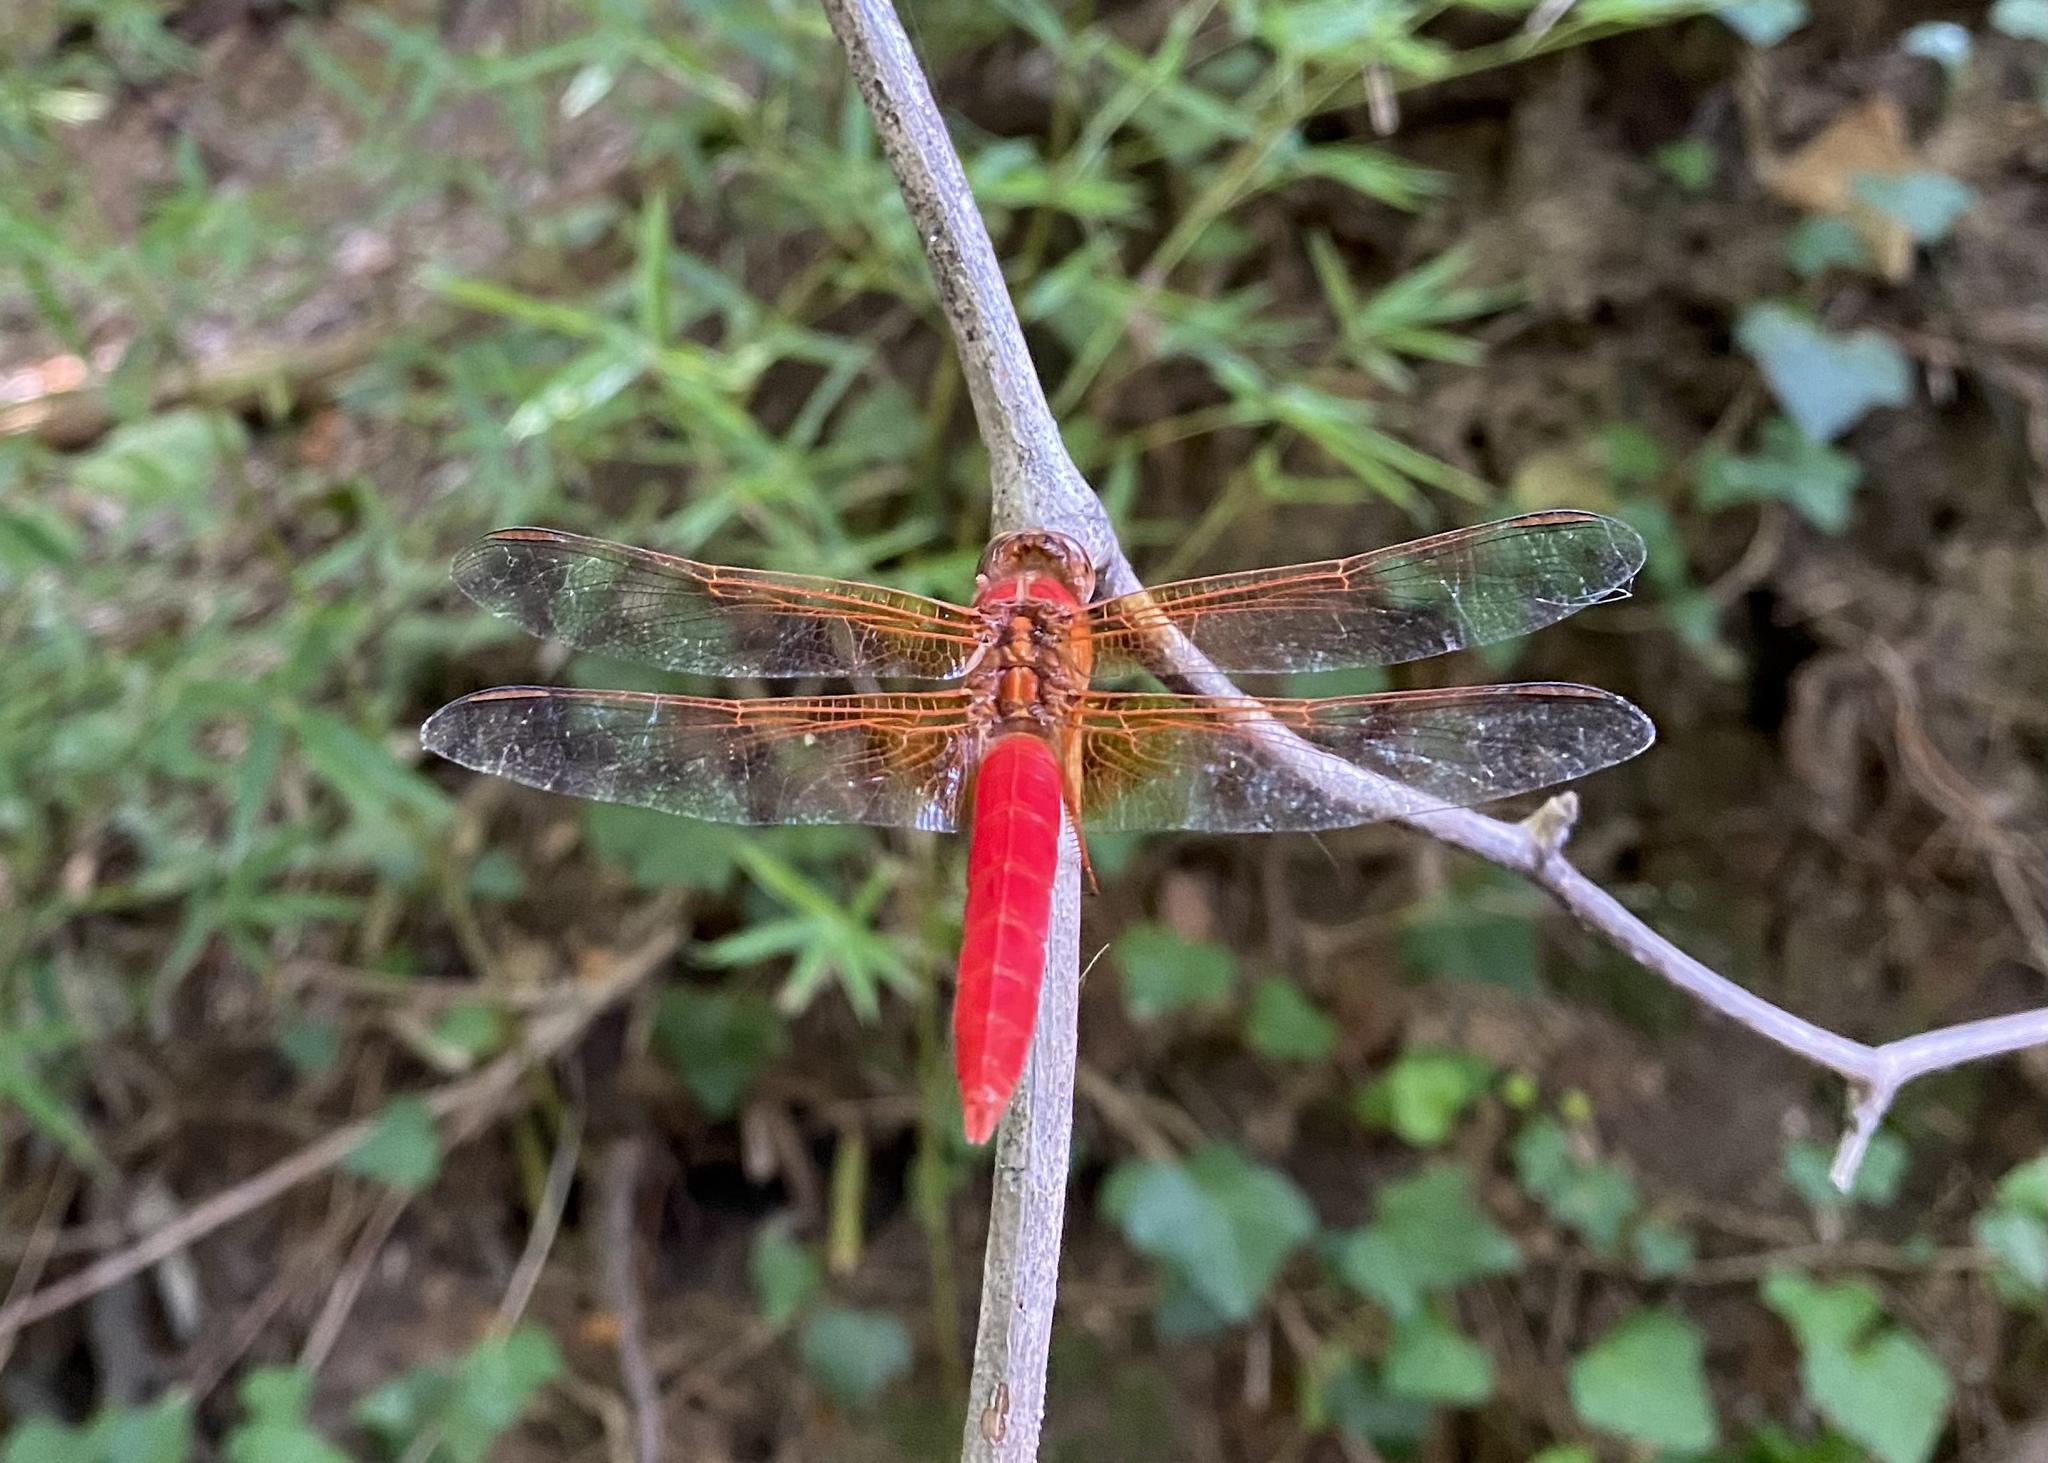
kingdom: Animalia
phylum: Arthropoda
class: Insecta
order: Odonata
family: Libellulidae
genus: Libellula
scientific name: Libellula croceipennis
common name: Neon skimmer
